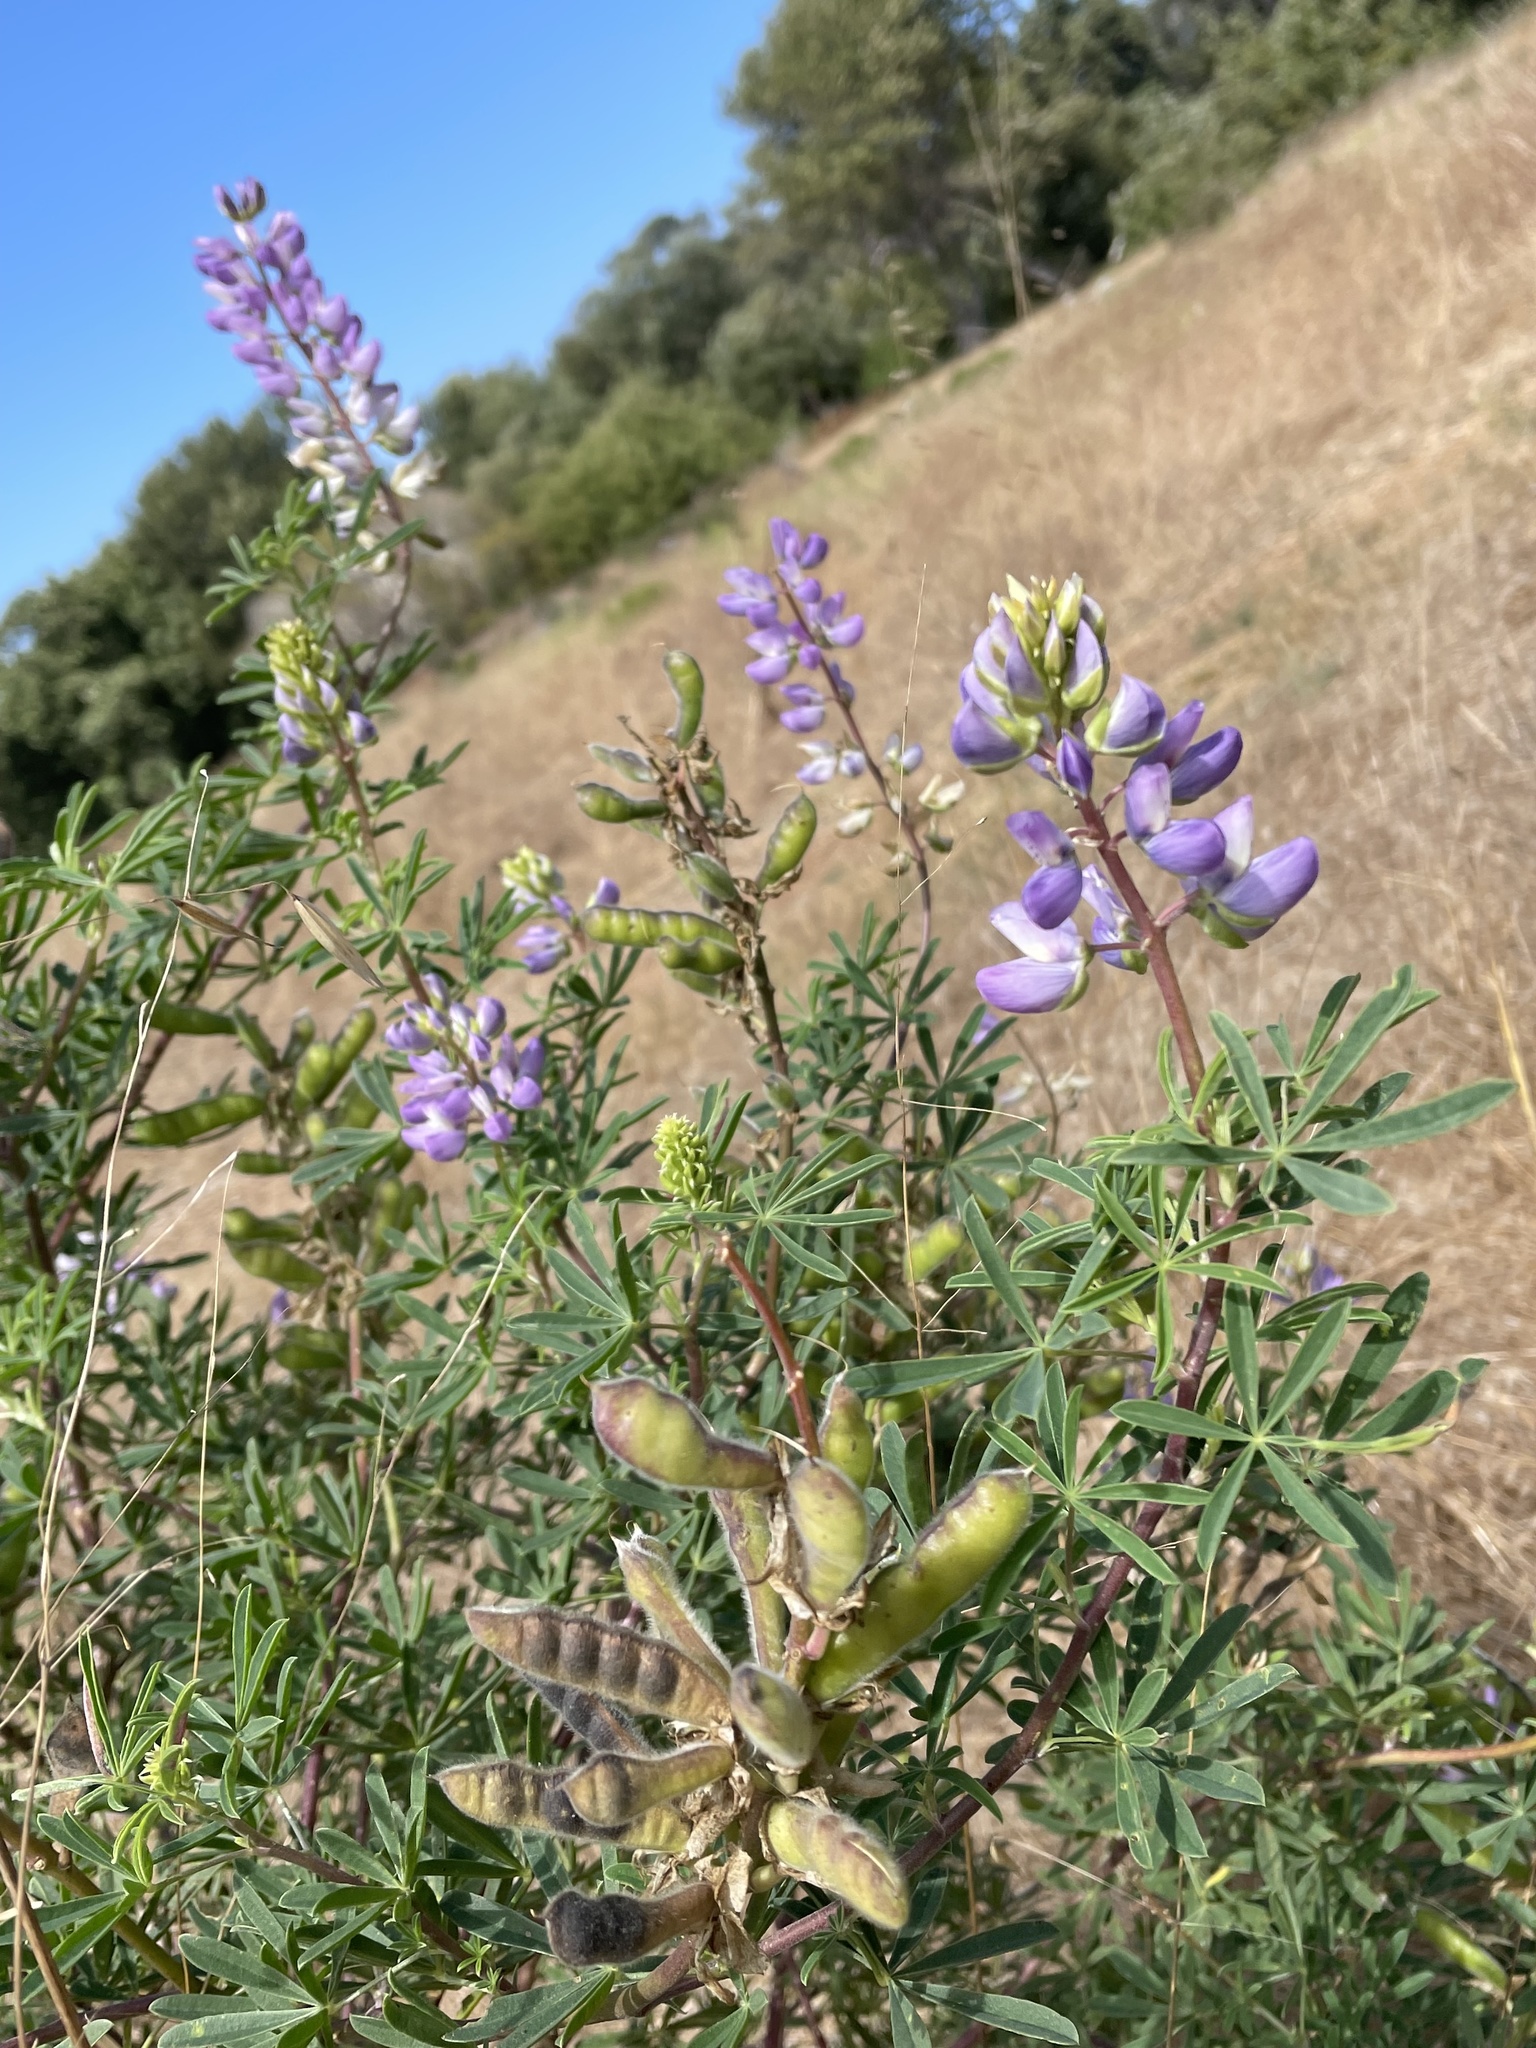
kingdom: Plantae
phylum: Tracheophyta
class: Magnoliopsida
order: Fabales
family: Fabaceae
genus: Lupinus
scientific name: Lupinus arboreus
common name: Yellow bush lupine
